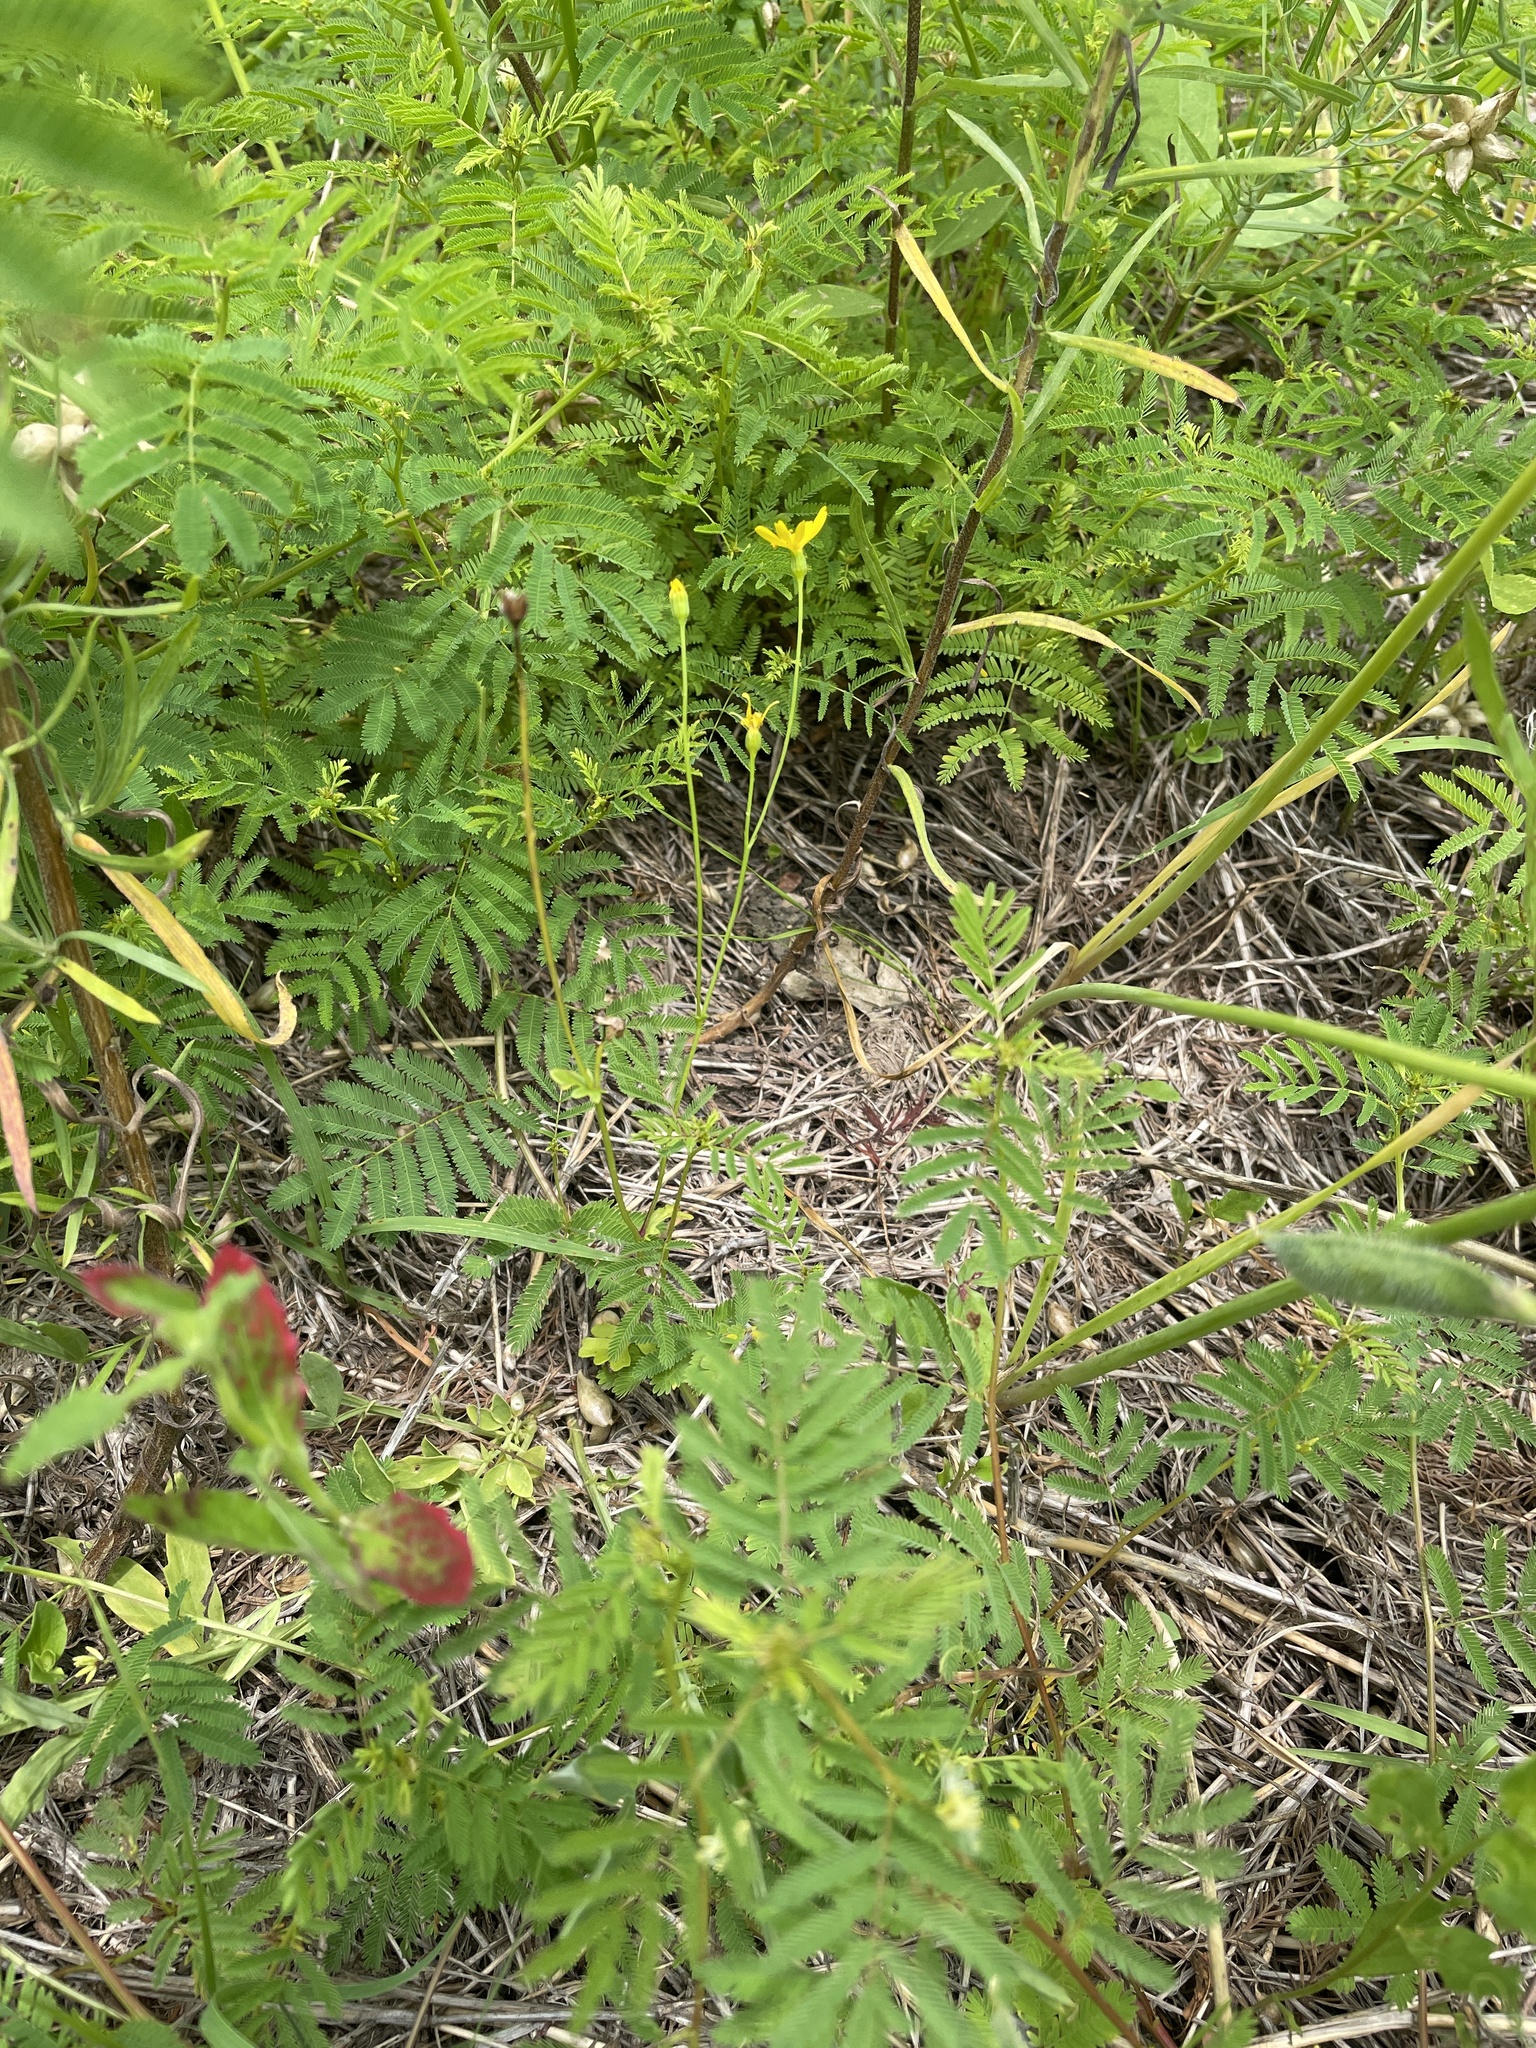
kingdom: Plantae
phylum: Tracheophyta
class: Magnoliopsida
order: Asterales
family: Asteraceae
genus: Packera
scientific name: Packera tampicana
